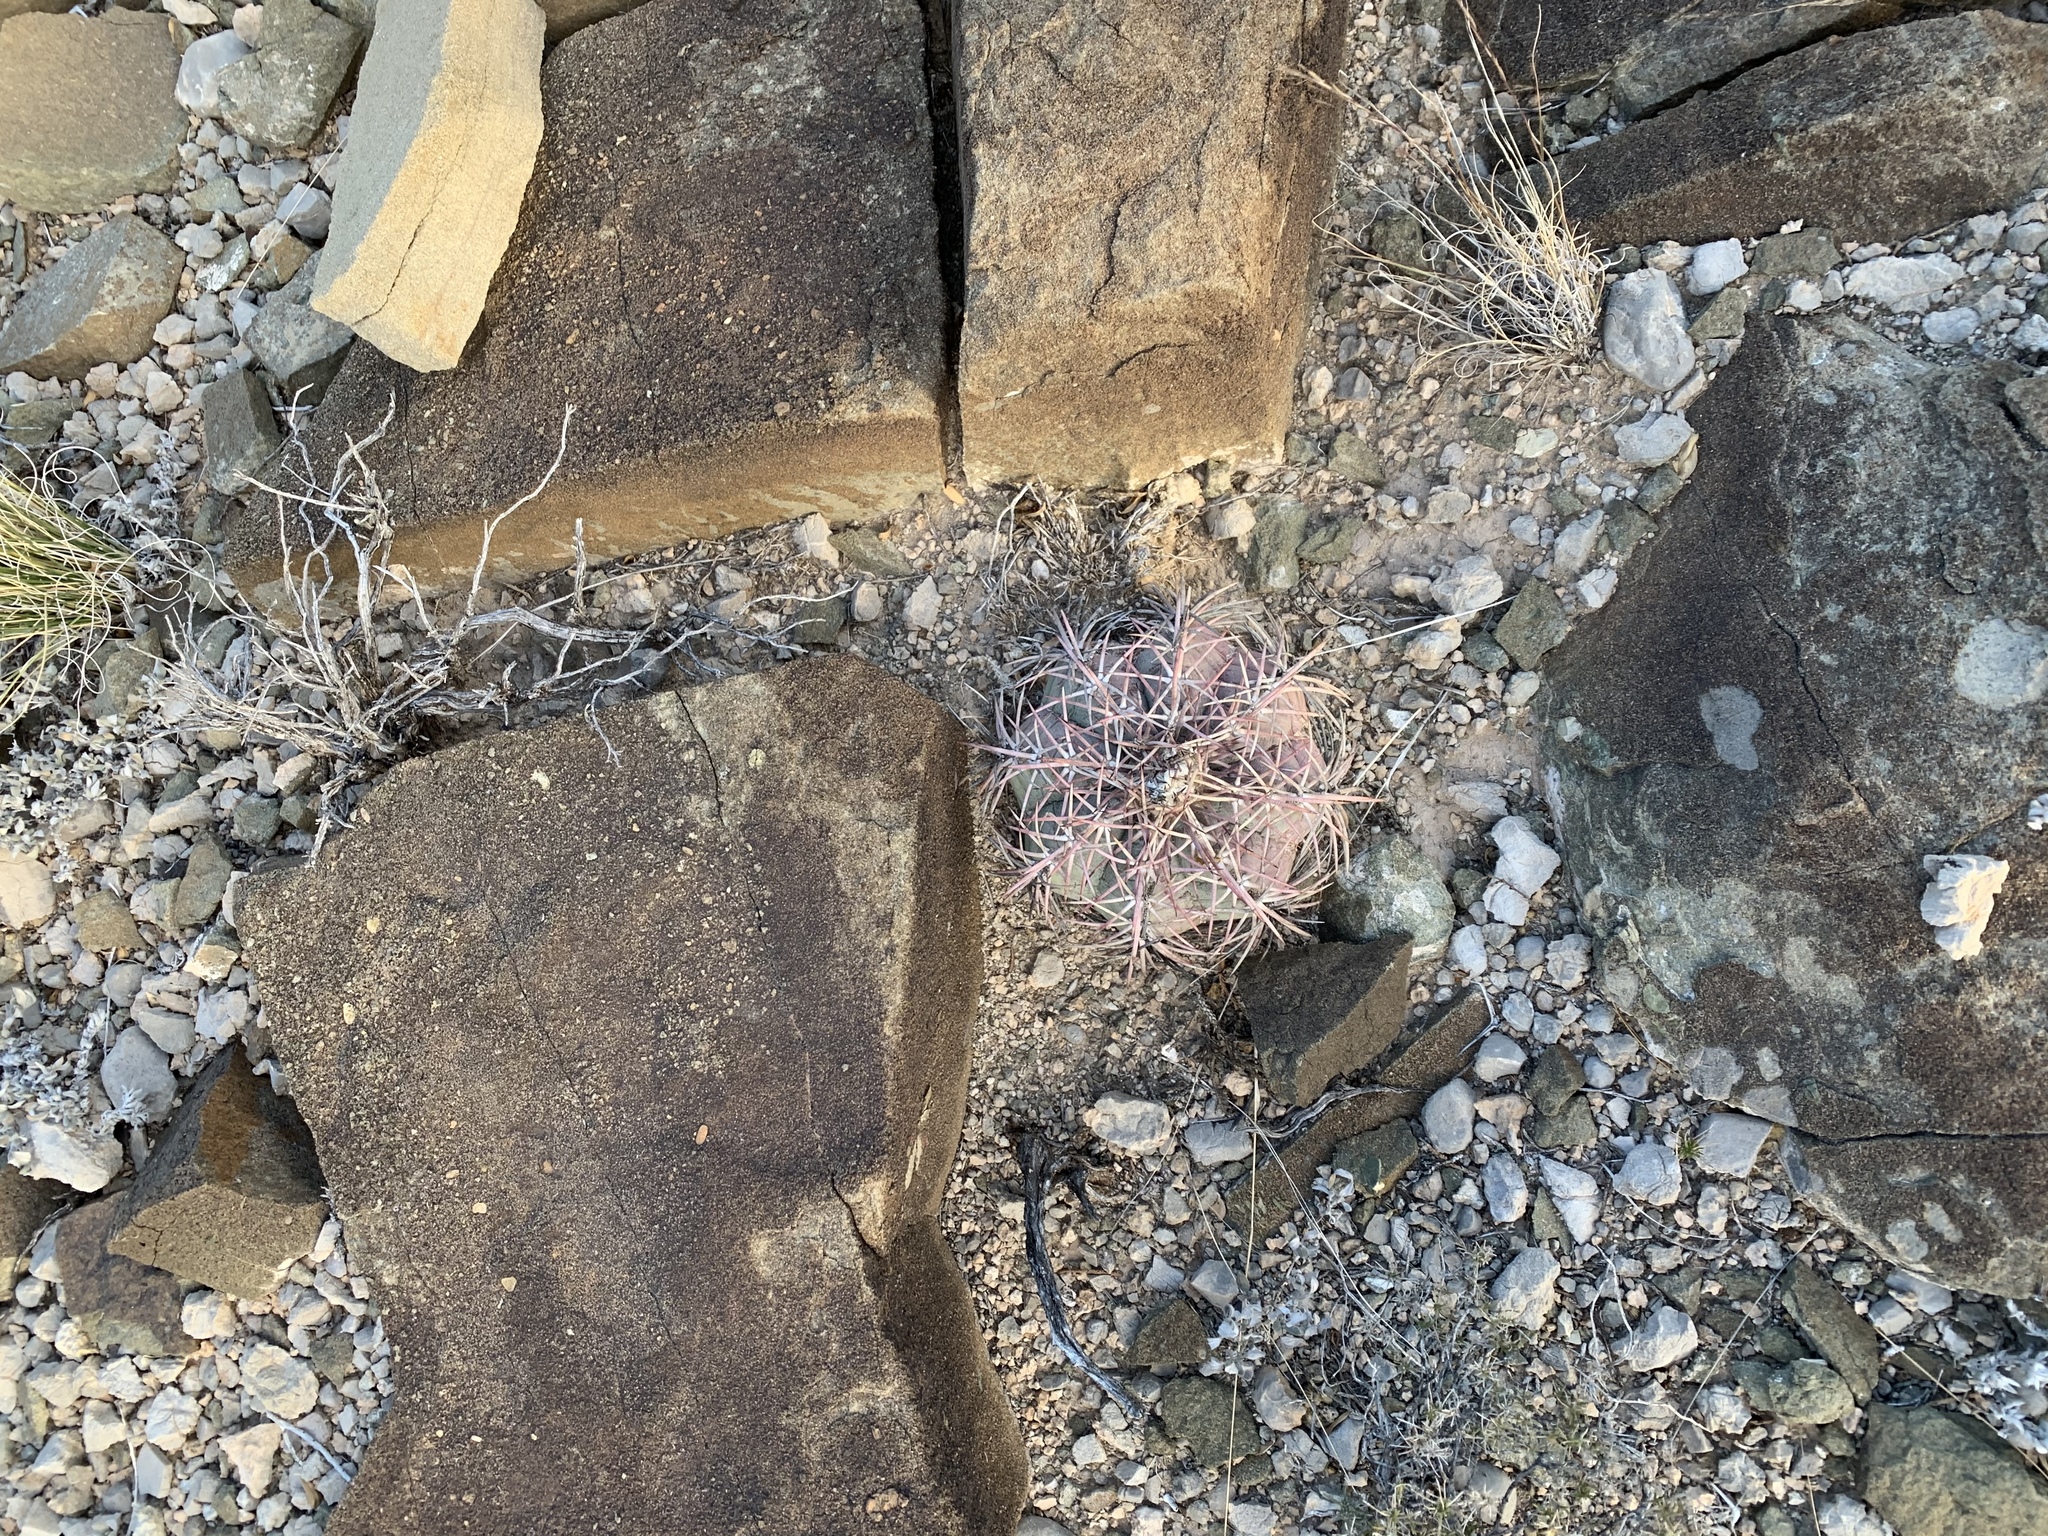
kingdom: Plantae
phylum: Tracheophyta
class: Magnoliopsida
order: Caryophyllales
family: Cactaceae
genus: Echinocactus
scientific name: Echinocactus horizonthalonius
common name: Devilshead
